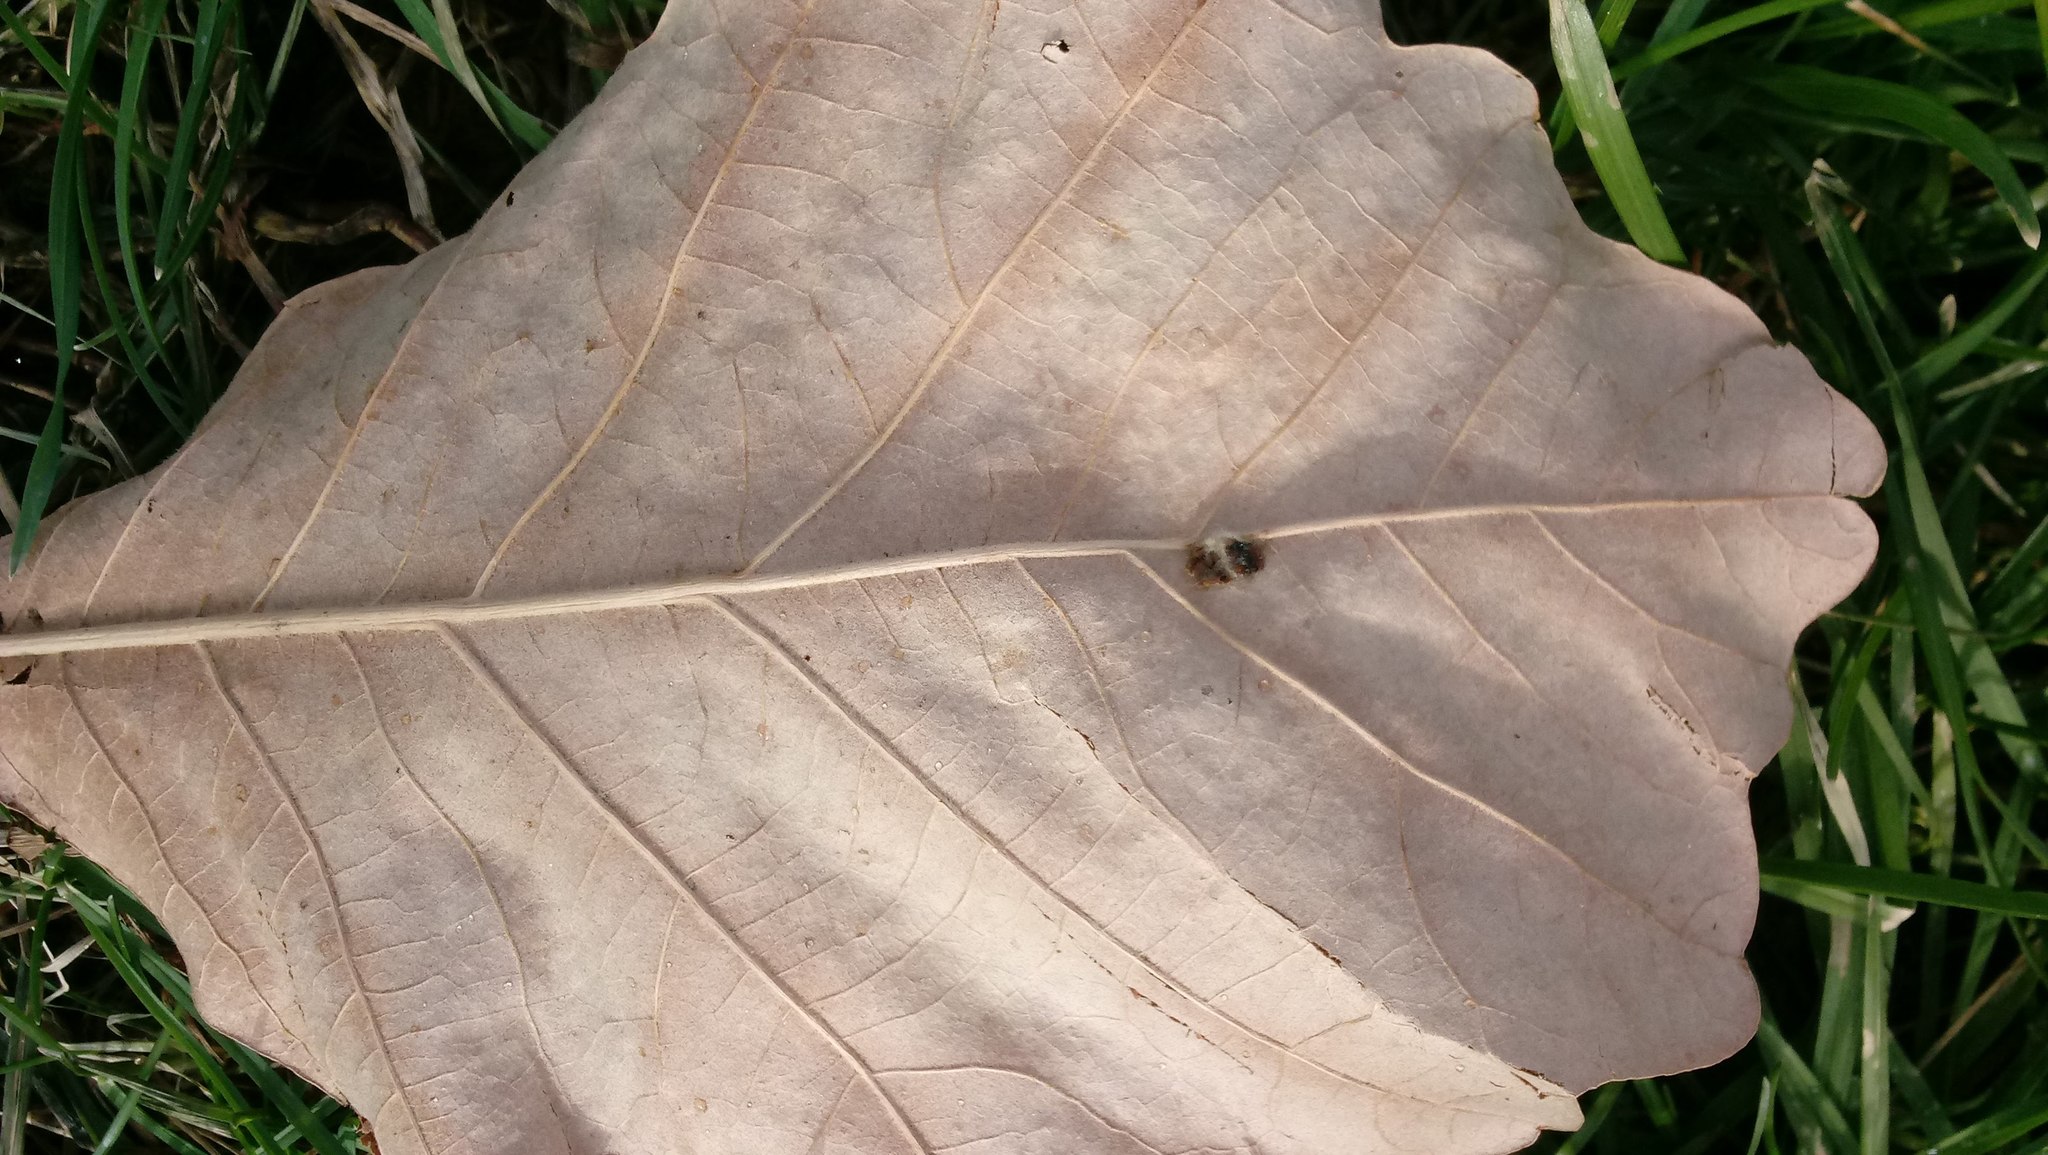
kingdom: Animalia
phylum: Arthropoda
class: Insecta
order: Hymenoptera
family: Cynipidae
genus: Andricus
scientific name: Andricus Druon ignotum
